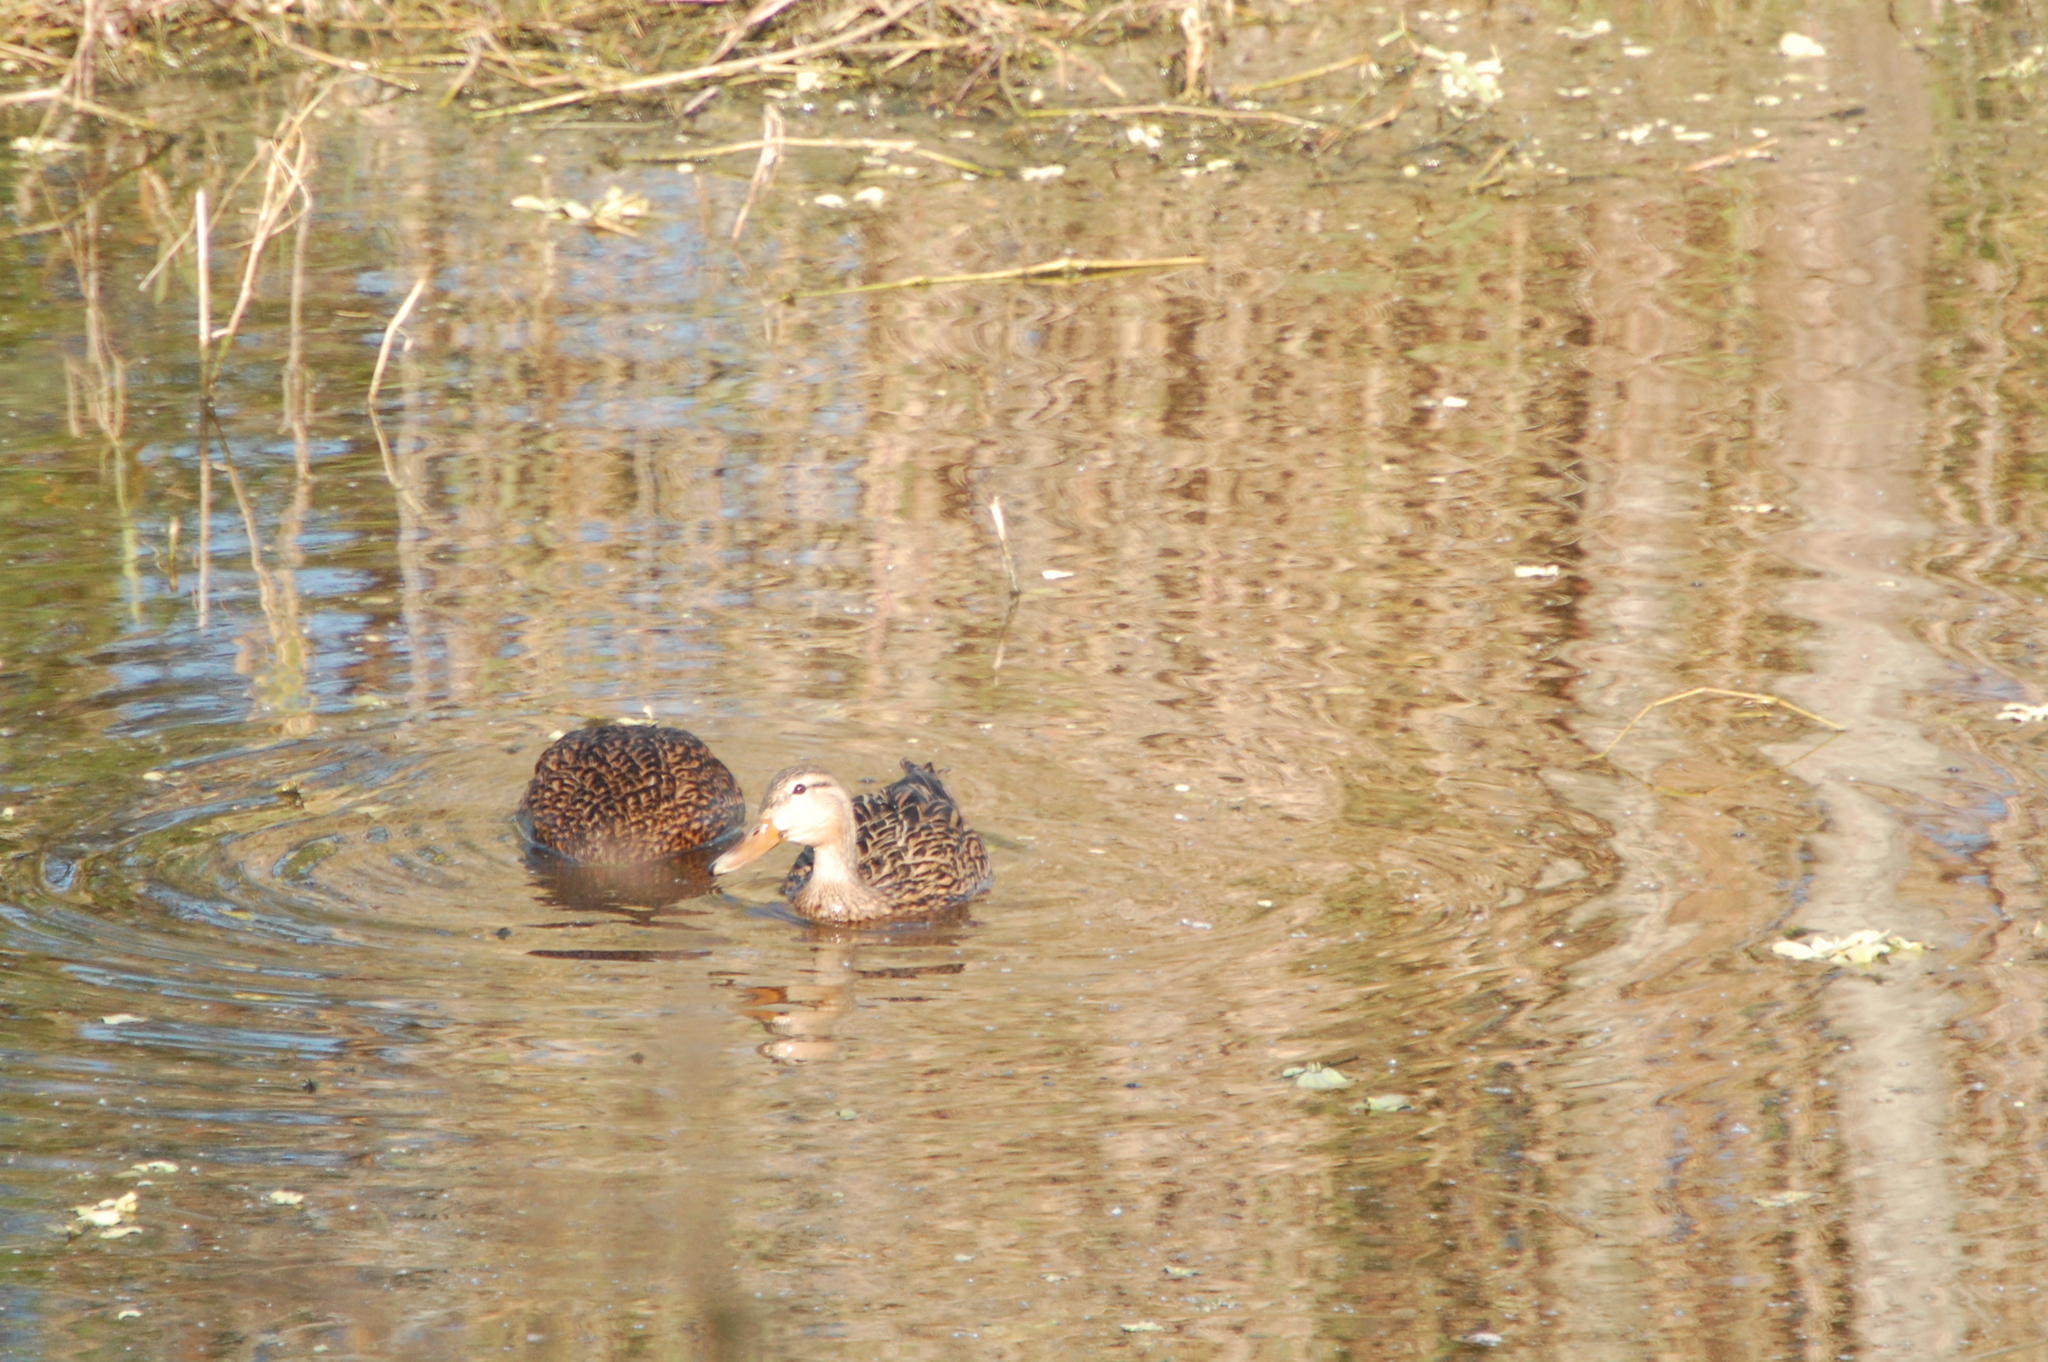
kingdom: Animalia
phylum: Chordata
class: Aves
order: Anseriformes
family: Anatidae
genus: Anas
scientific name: Anas fulvigula
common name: Mottled duck
